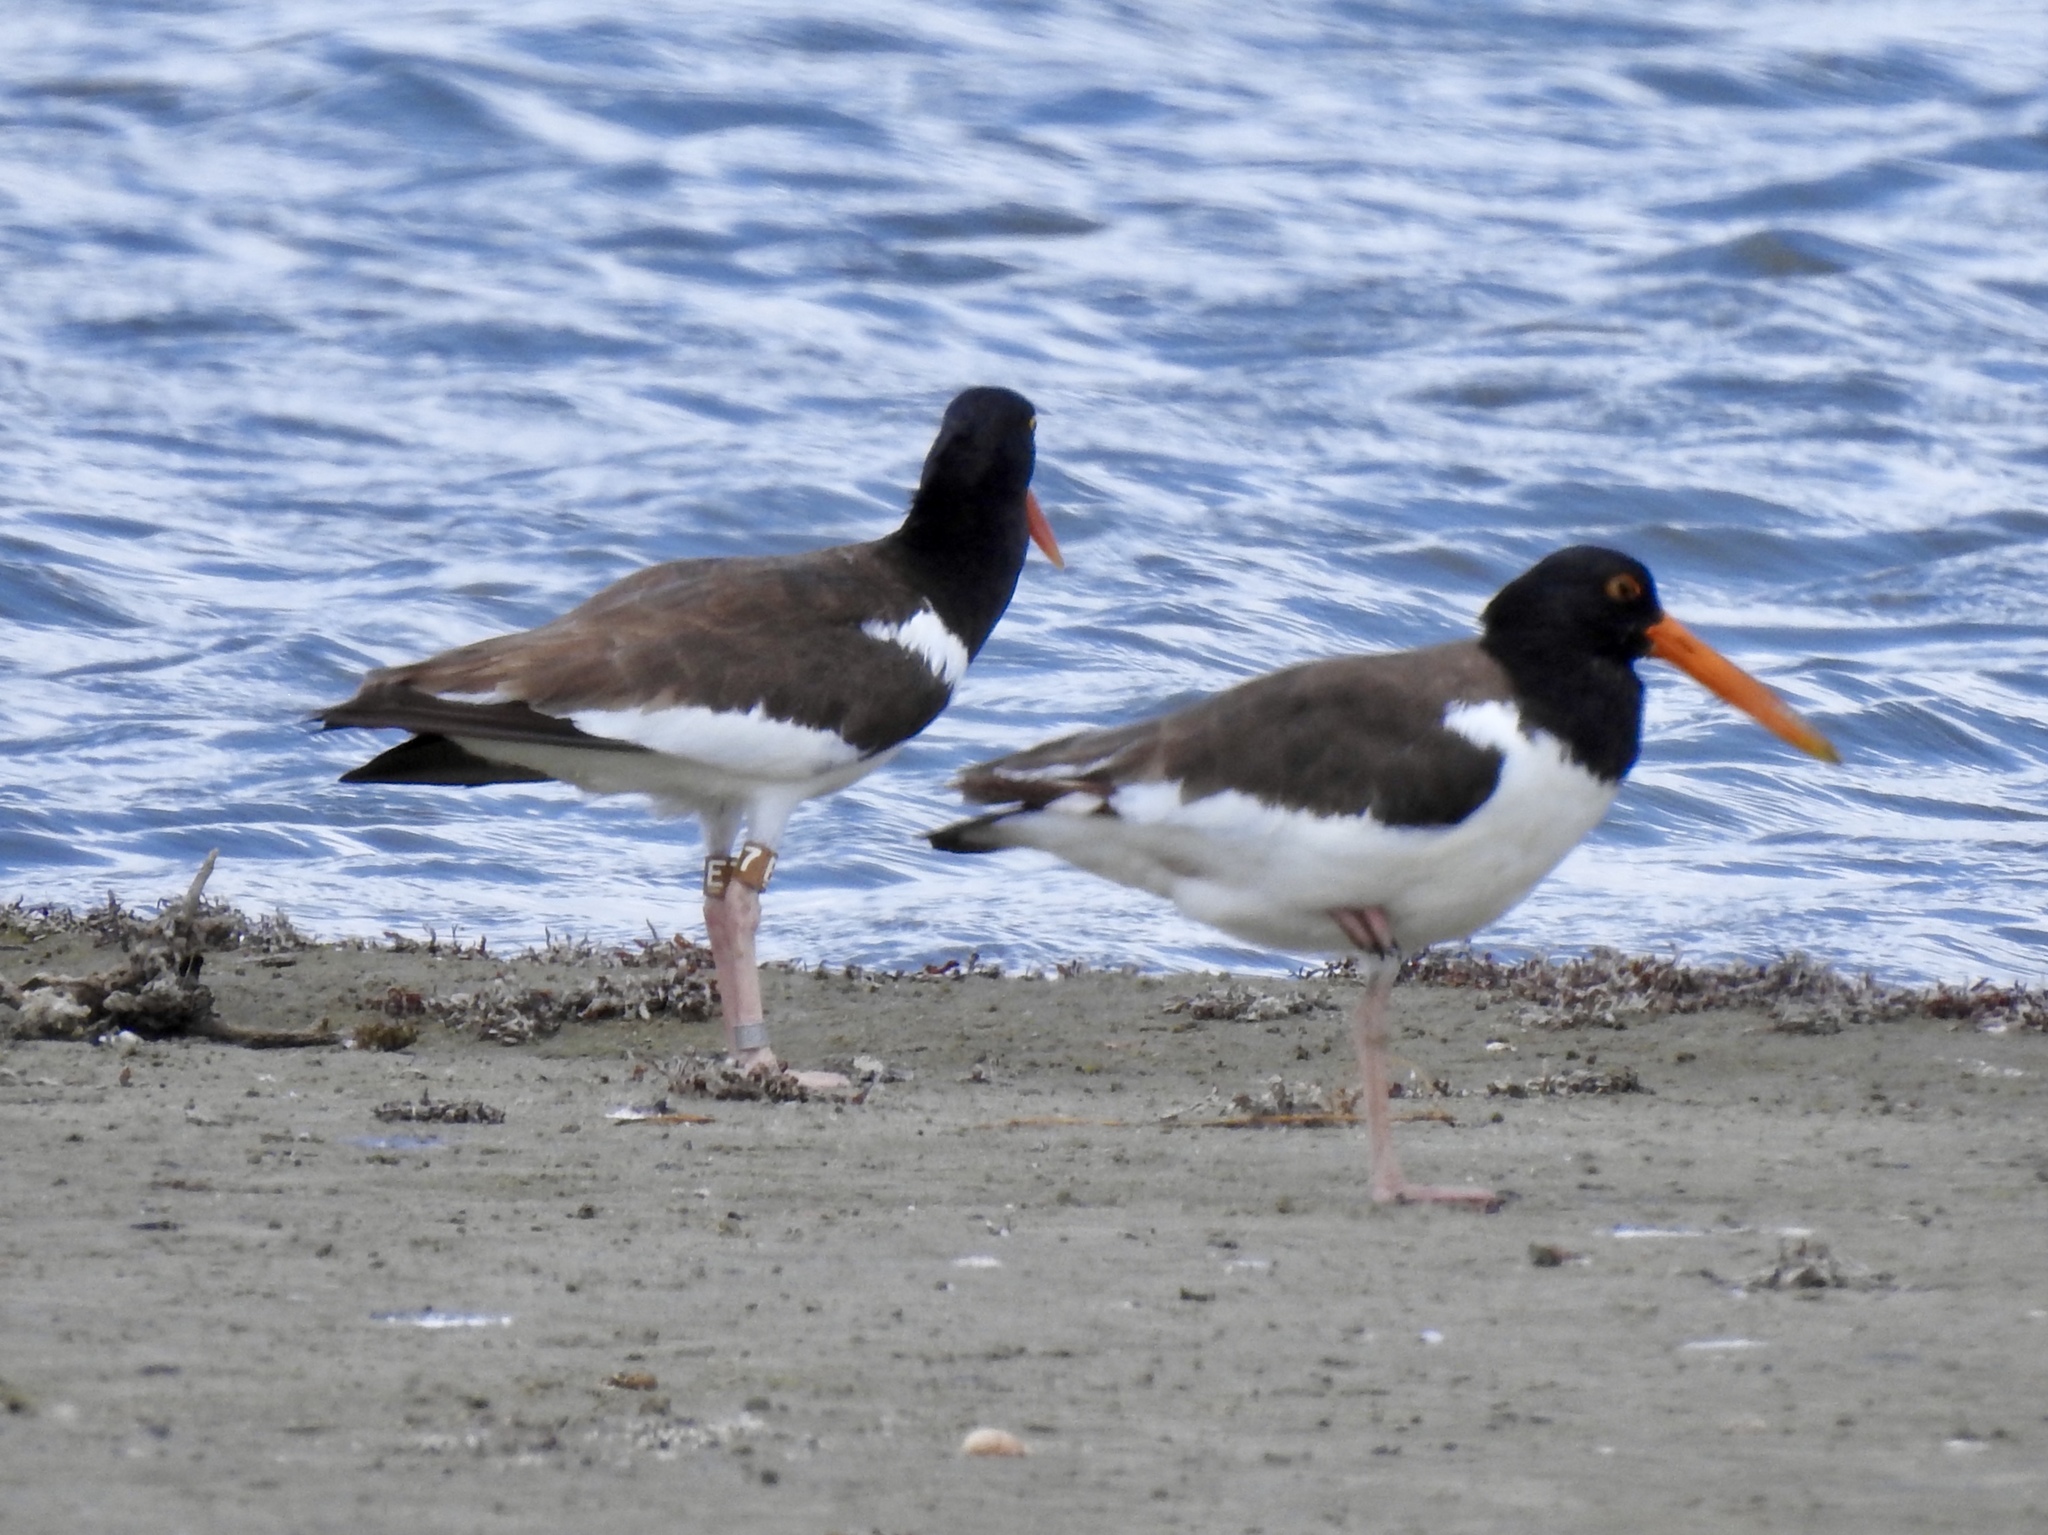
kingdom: Animalia
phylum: Chordata
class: Aves
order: Charadriiformes
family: Haematopodidae
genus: Haematopus
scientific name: Haematopus palliatus
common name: American oystercatcher
